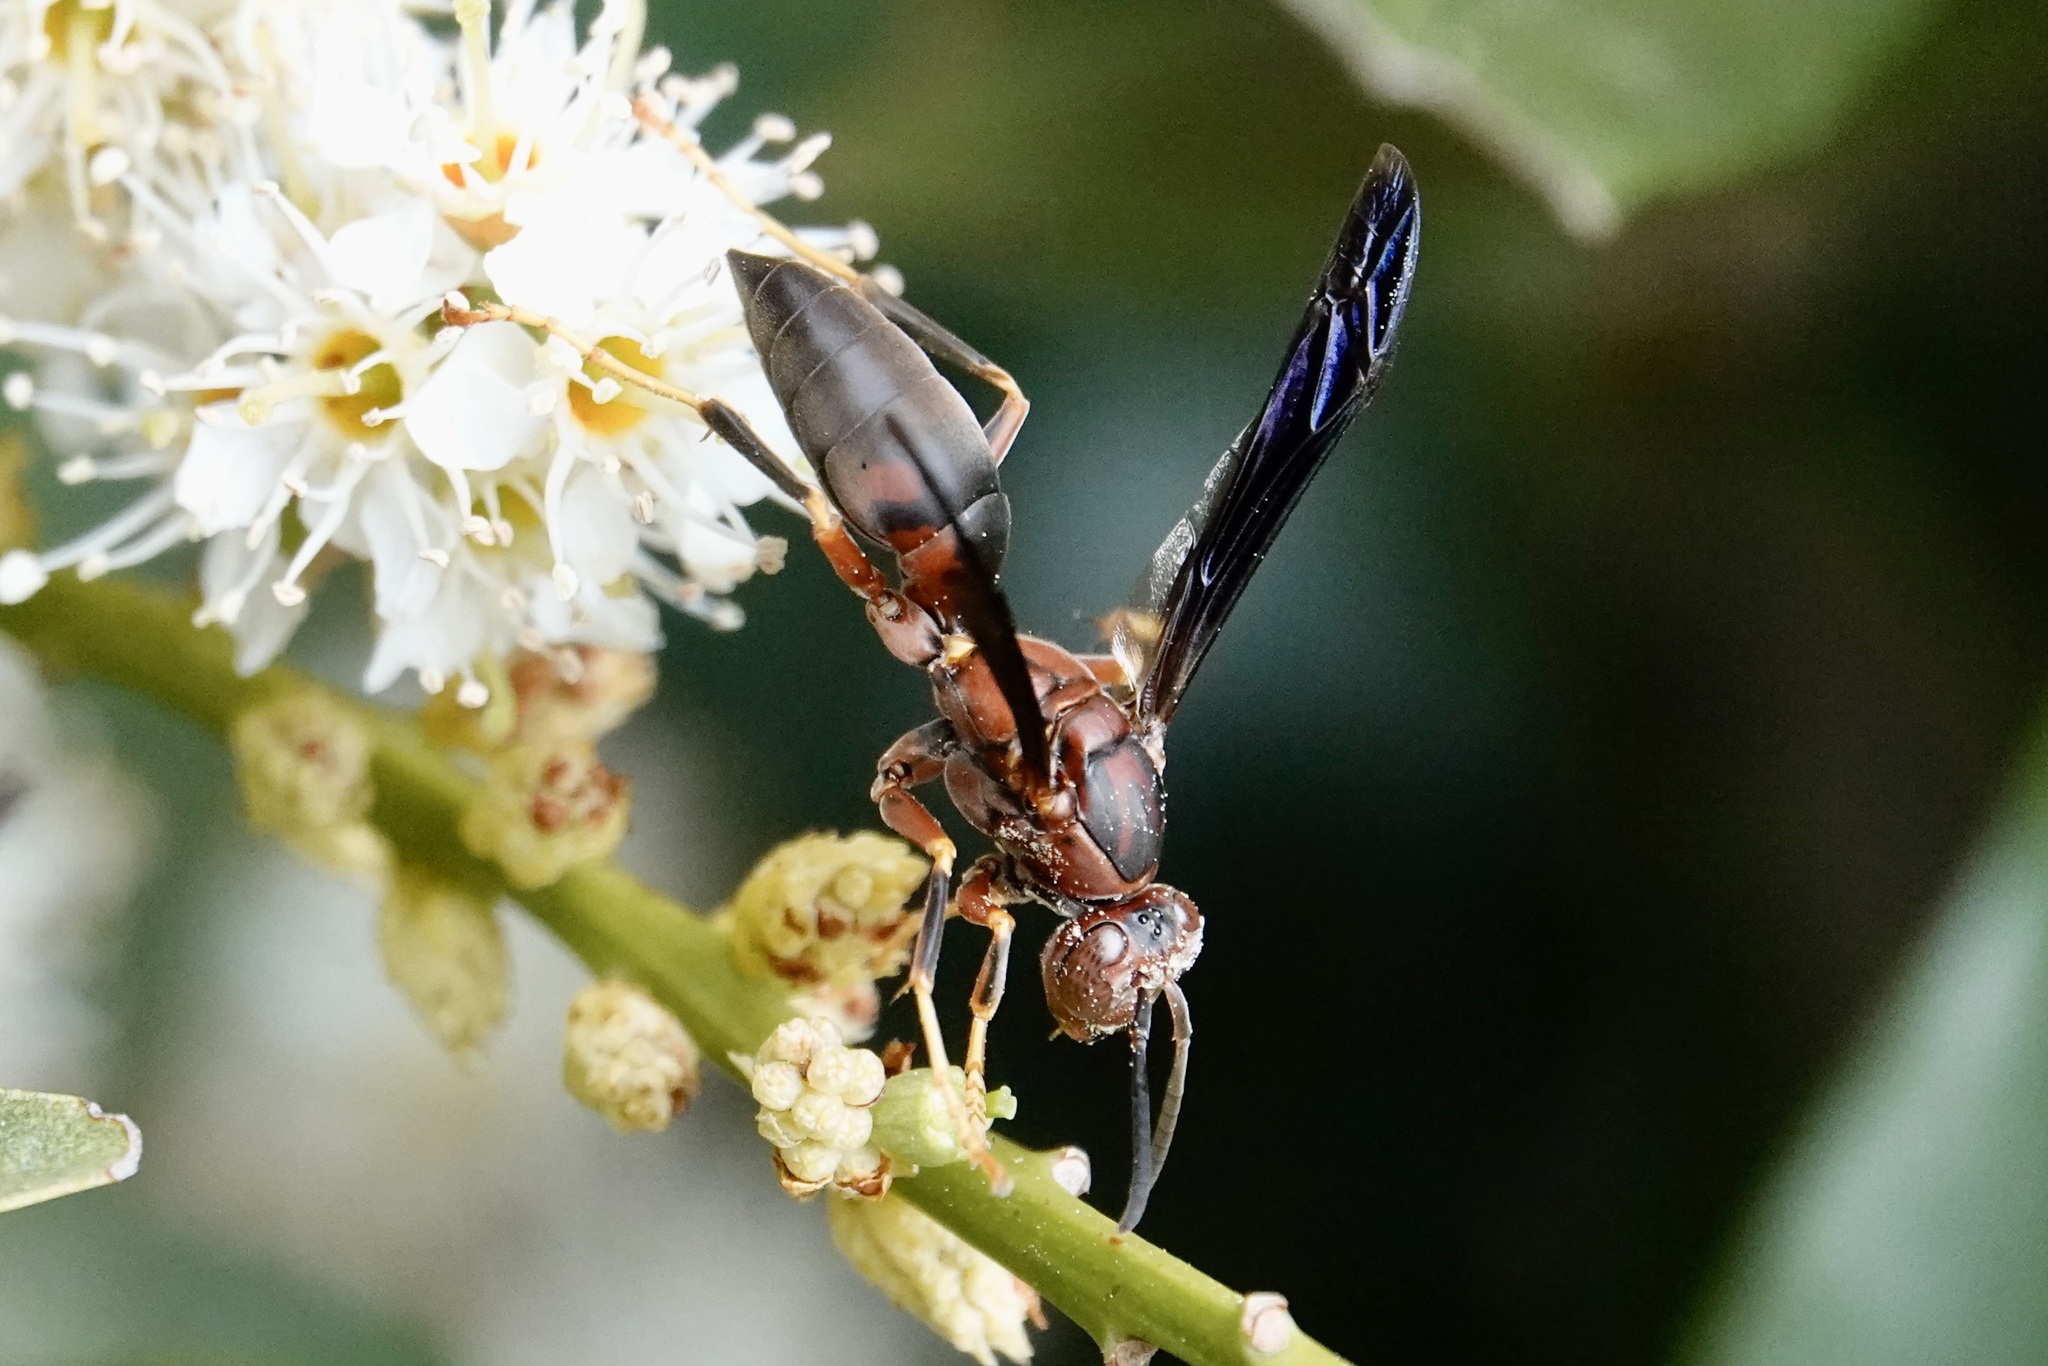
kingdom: Animalia
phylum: Arthropoda
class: Insecta
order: Hymenoptera
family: Eumenidae
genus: Polistes
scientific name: Polistes metricus
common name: Metric paper wasp
